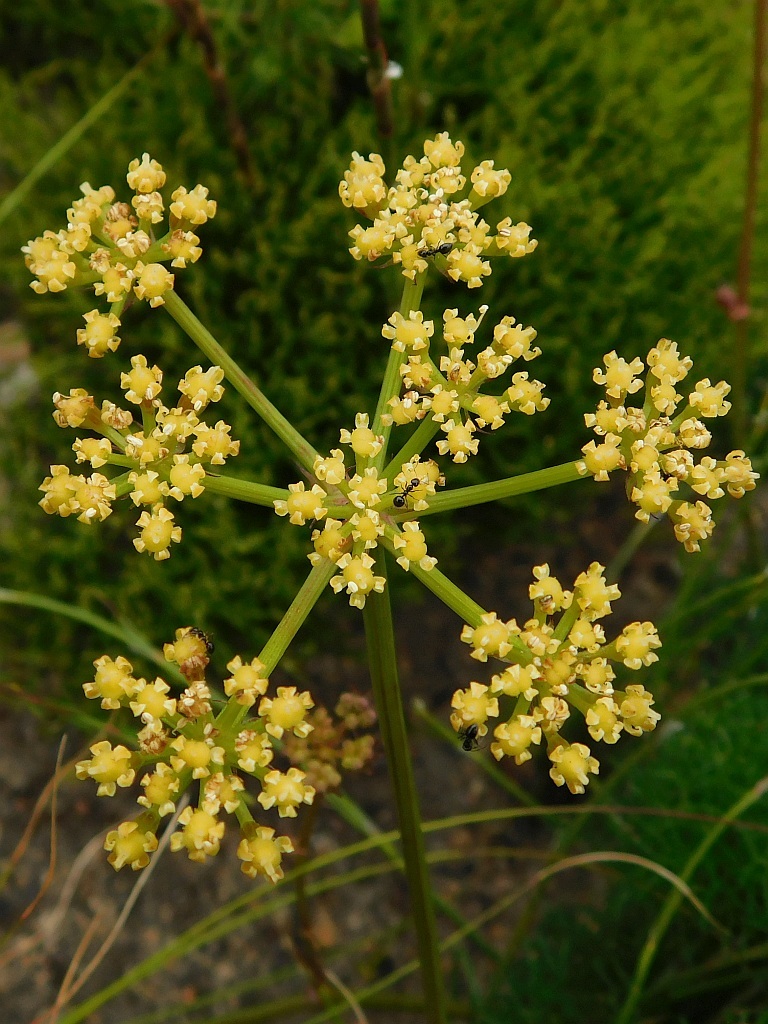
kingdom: Plantae
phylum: Tracheophyta
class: Magnoliopsida
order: Apiales
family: Apiaceae
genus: Nanobubon
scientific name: Nanobubon capillaceum
